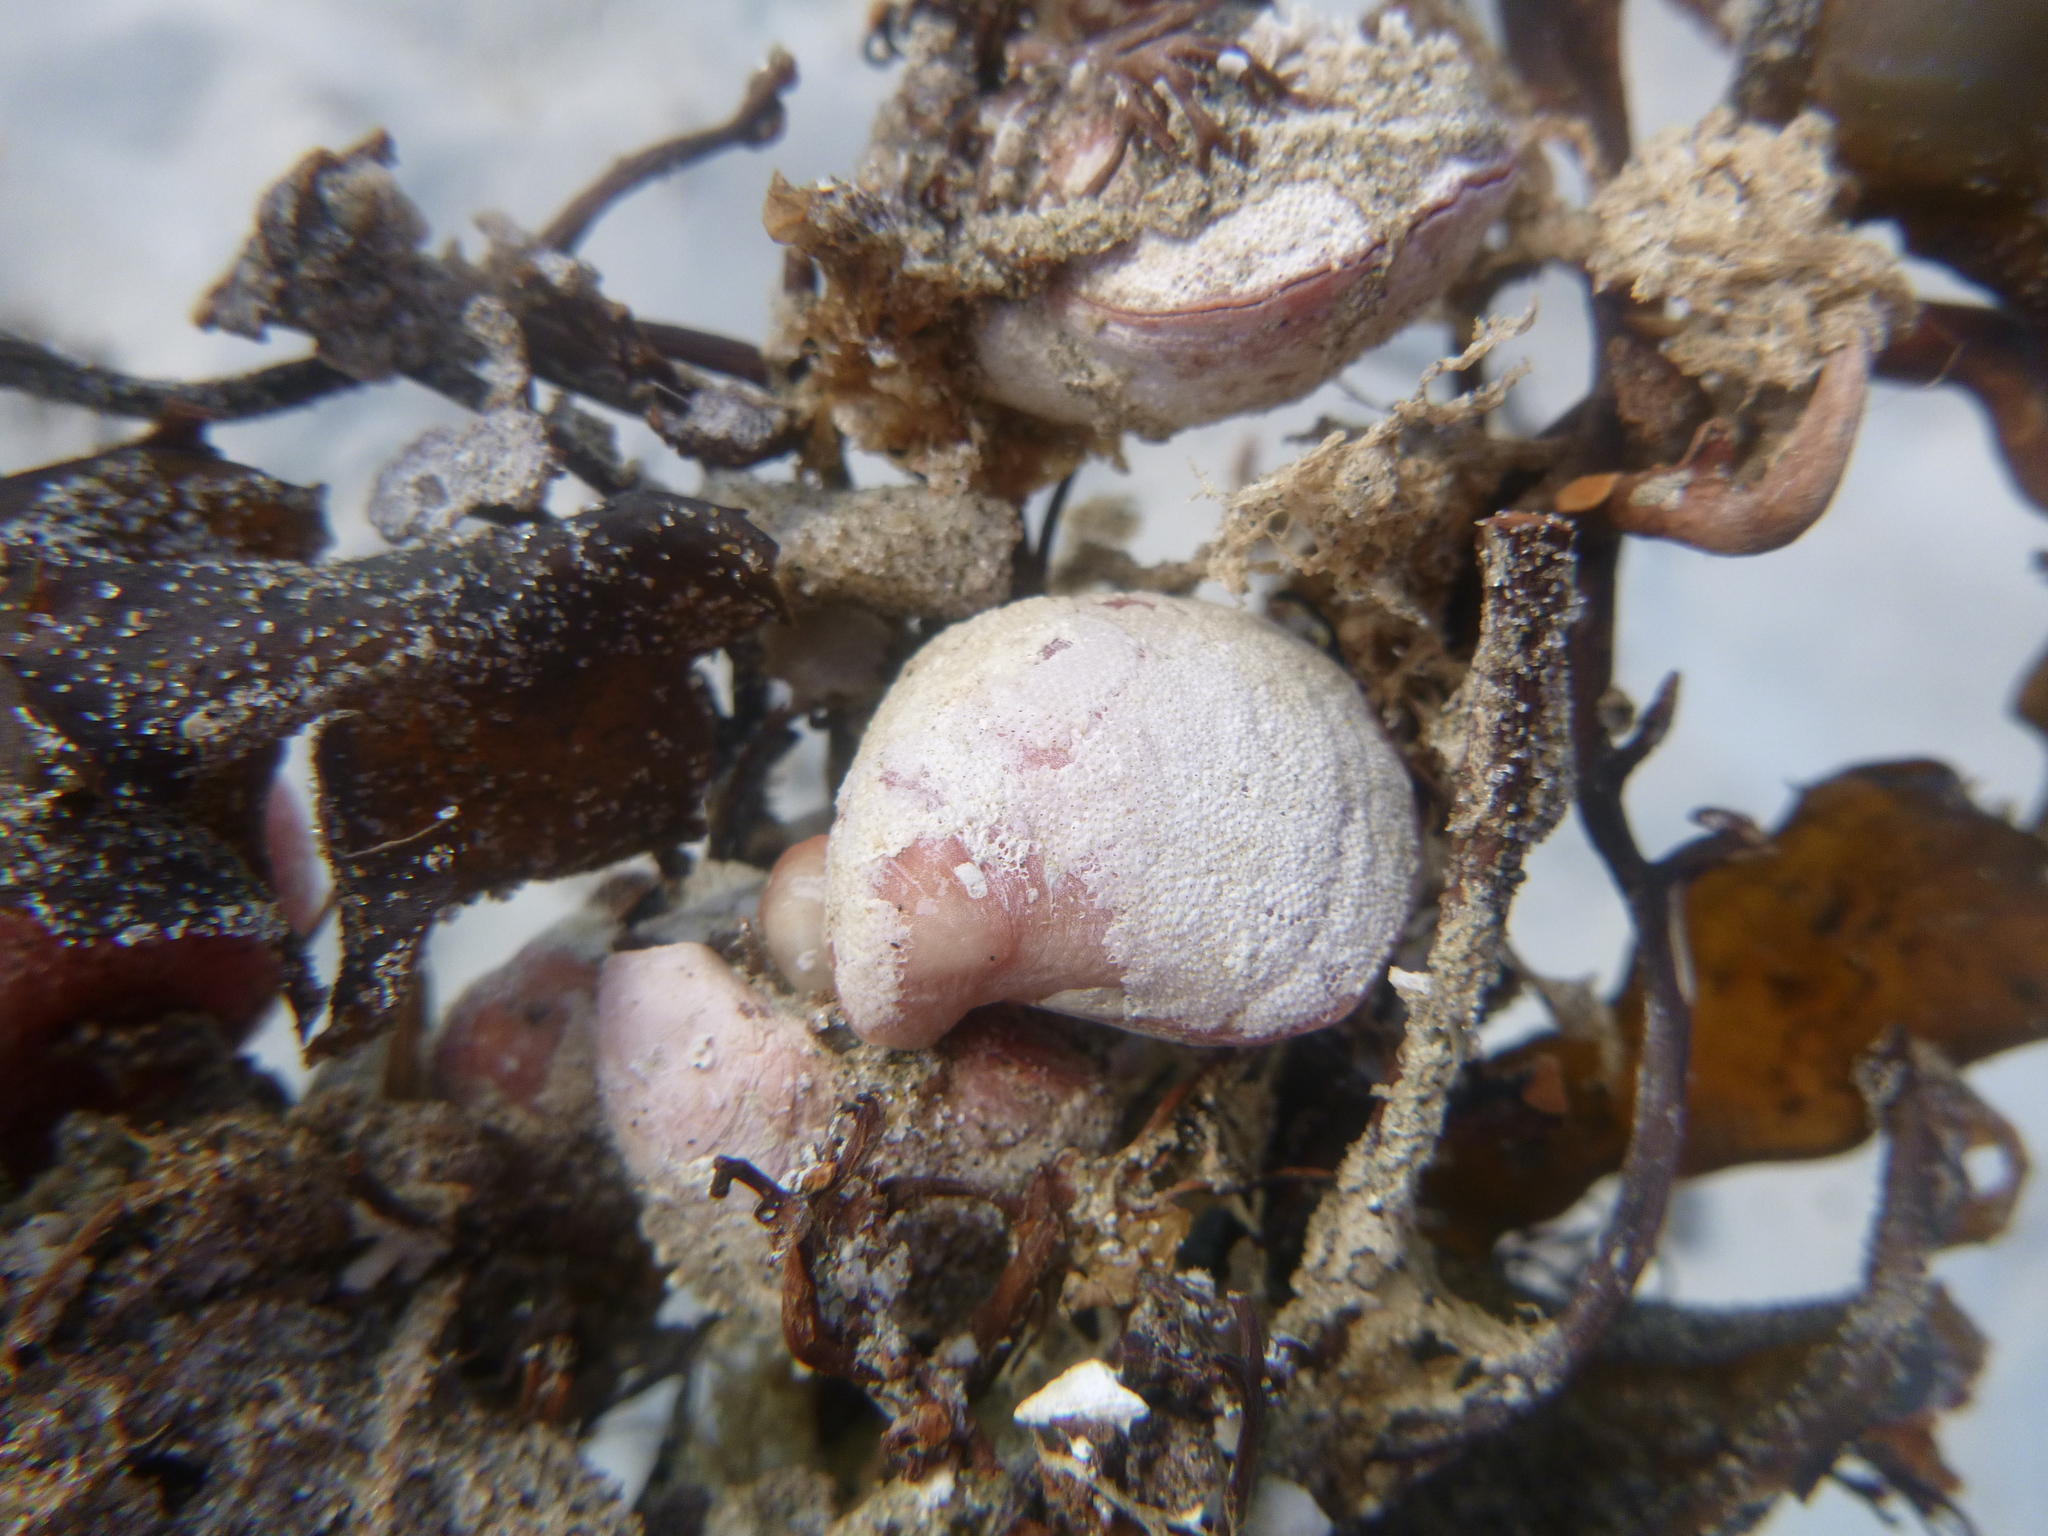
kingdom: Animalia
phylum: Brachiopoda
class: Rhynchonellata
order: Terebratulida
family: Terebratellidae
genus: Calloria
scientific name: Calloria inconspicua
